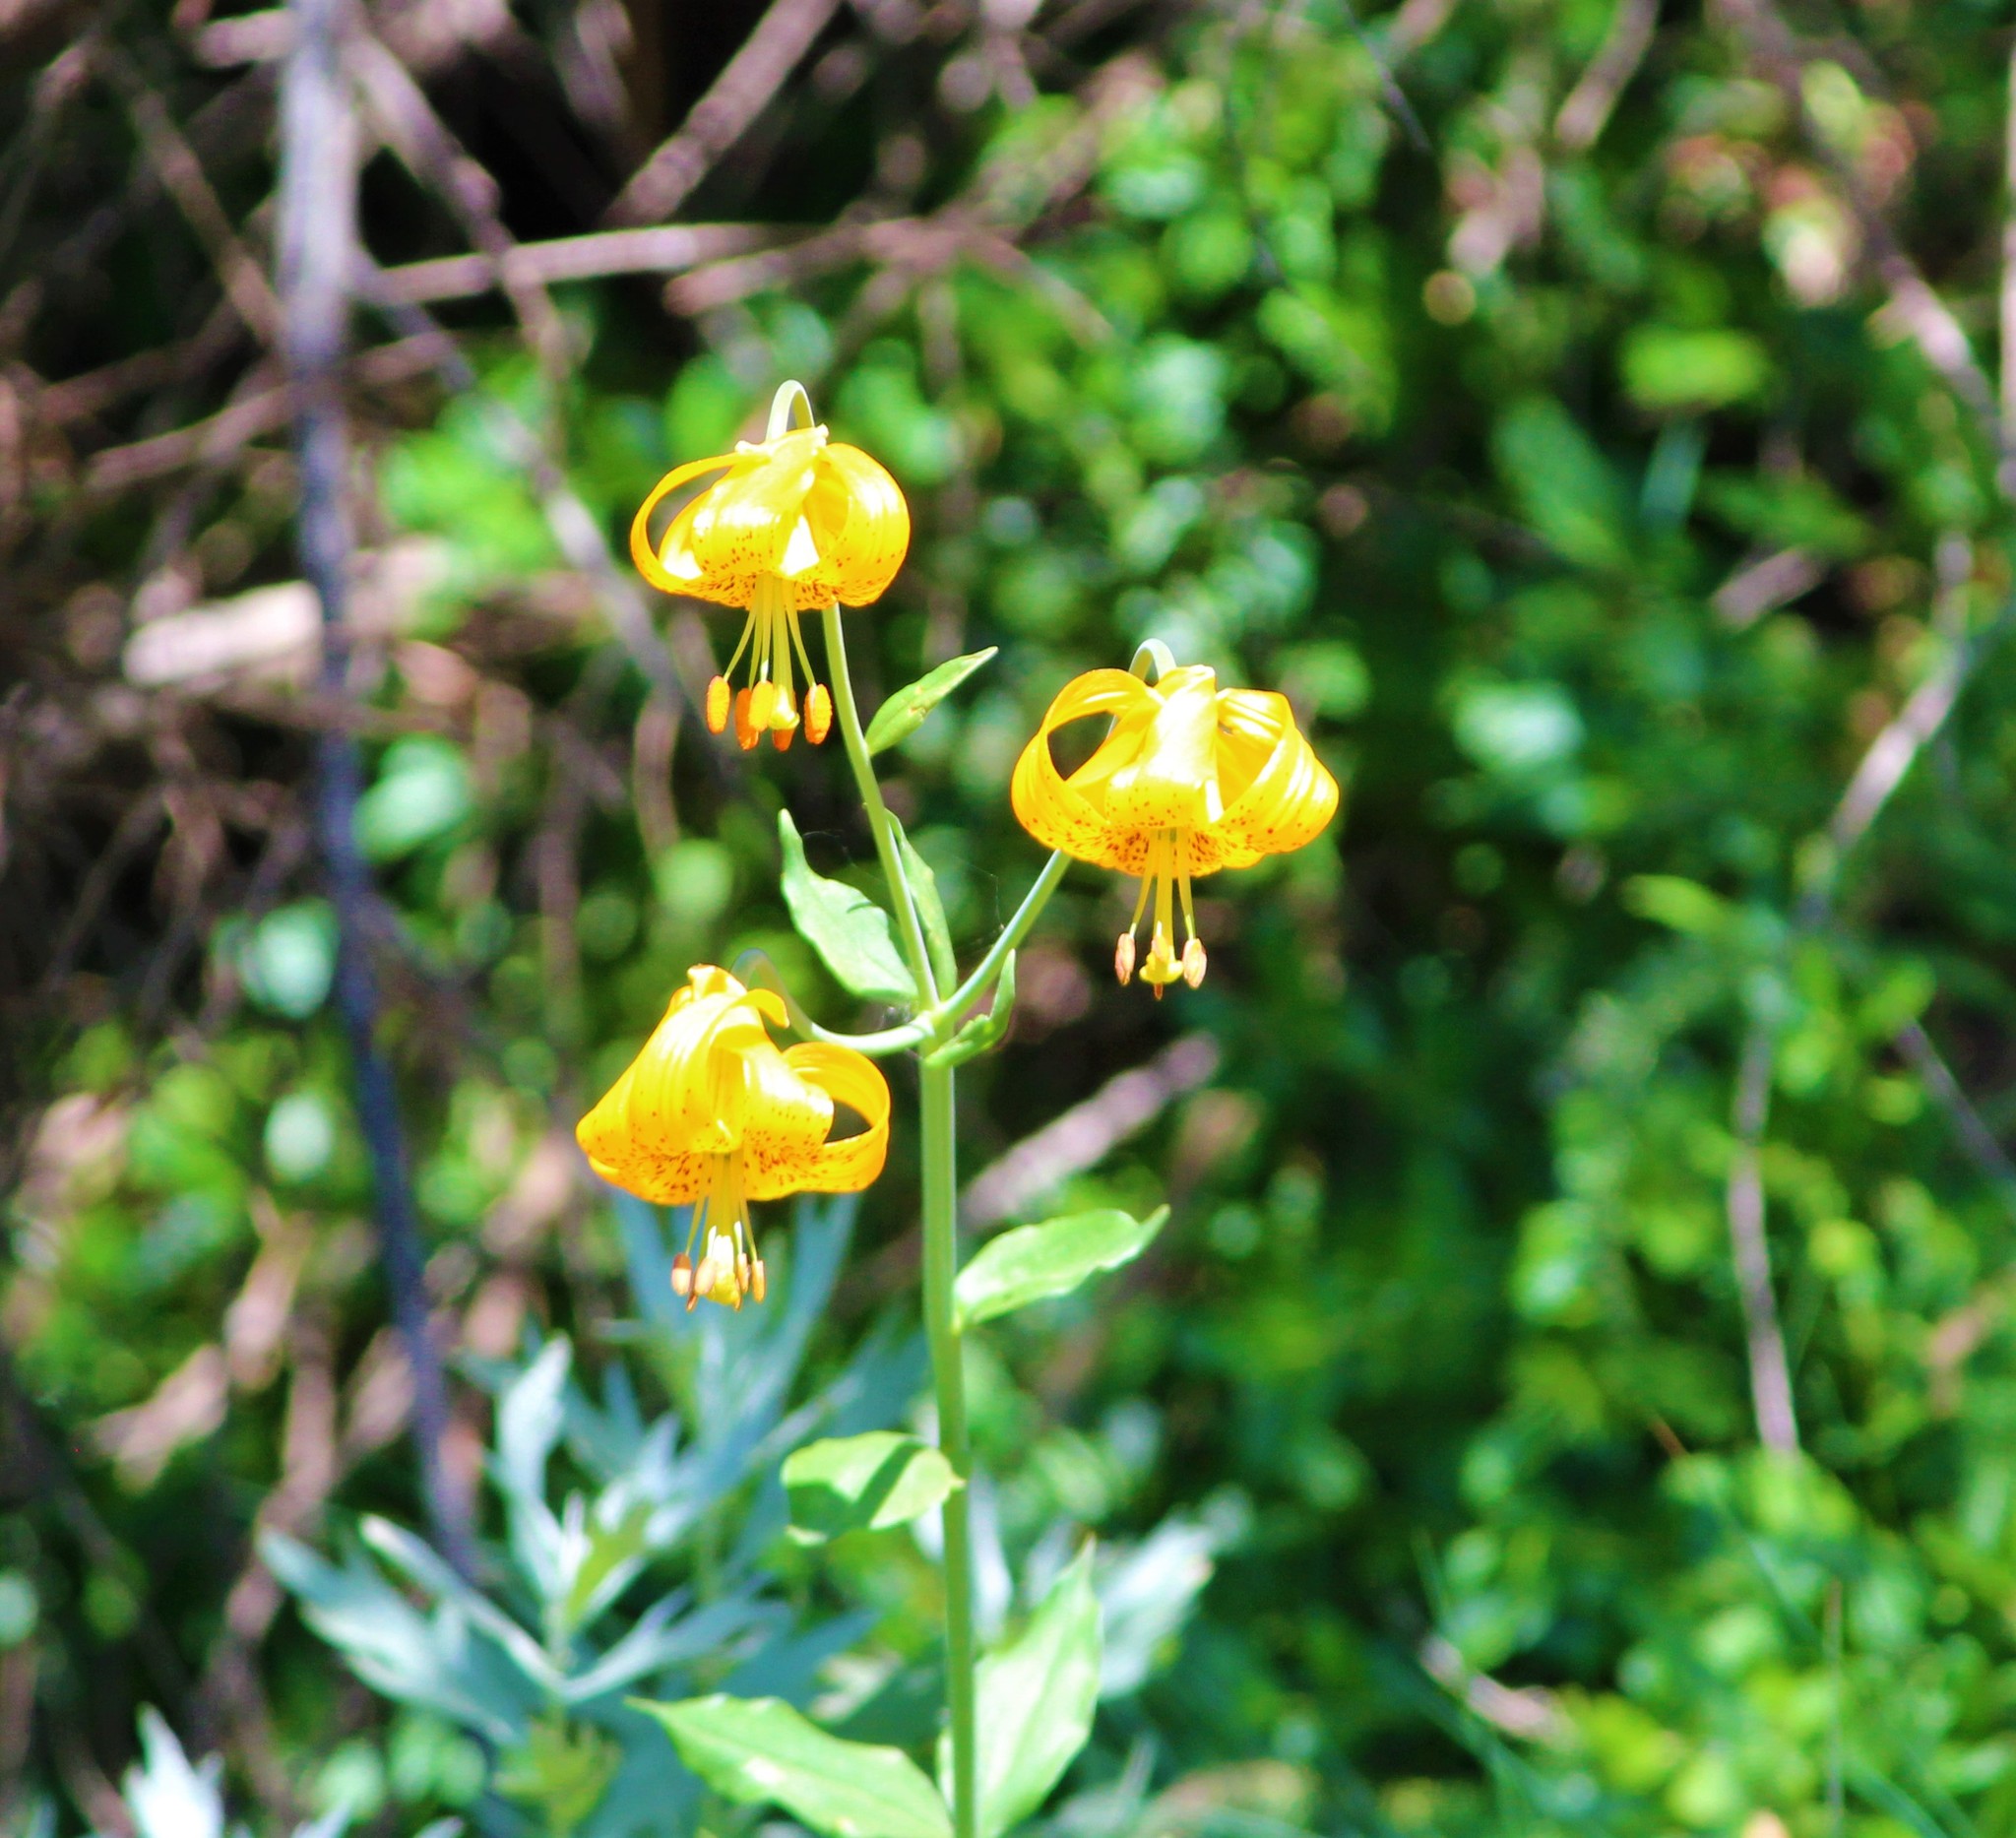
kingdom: Plantae
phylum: Tracheophyta
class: Liliopsida
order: Liliales
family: Liliaceae
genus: Lilium
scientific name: Lilium columbianum
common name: Columbia lily
